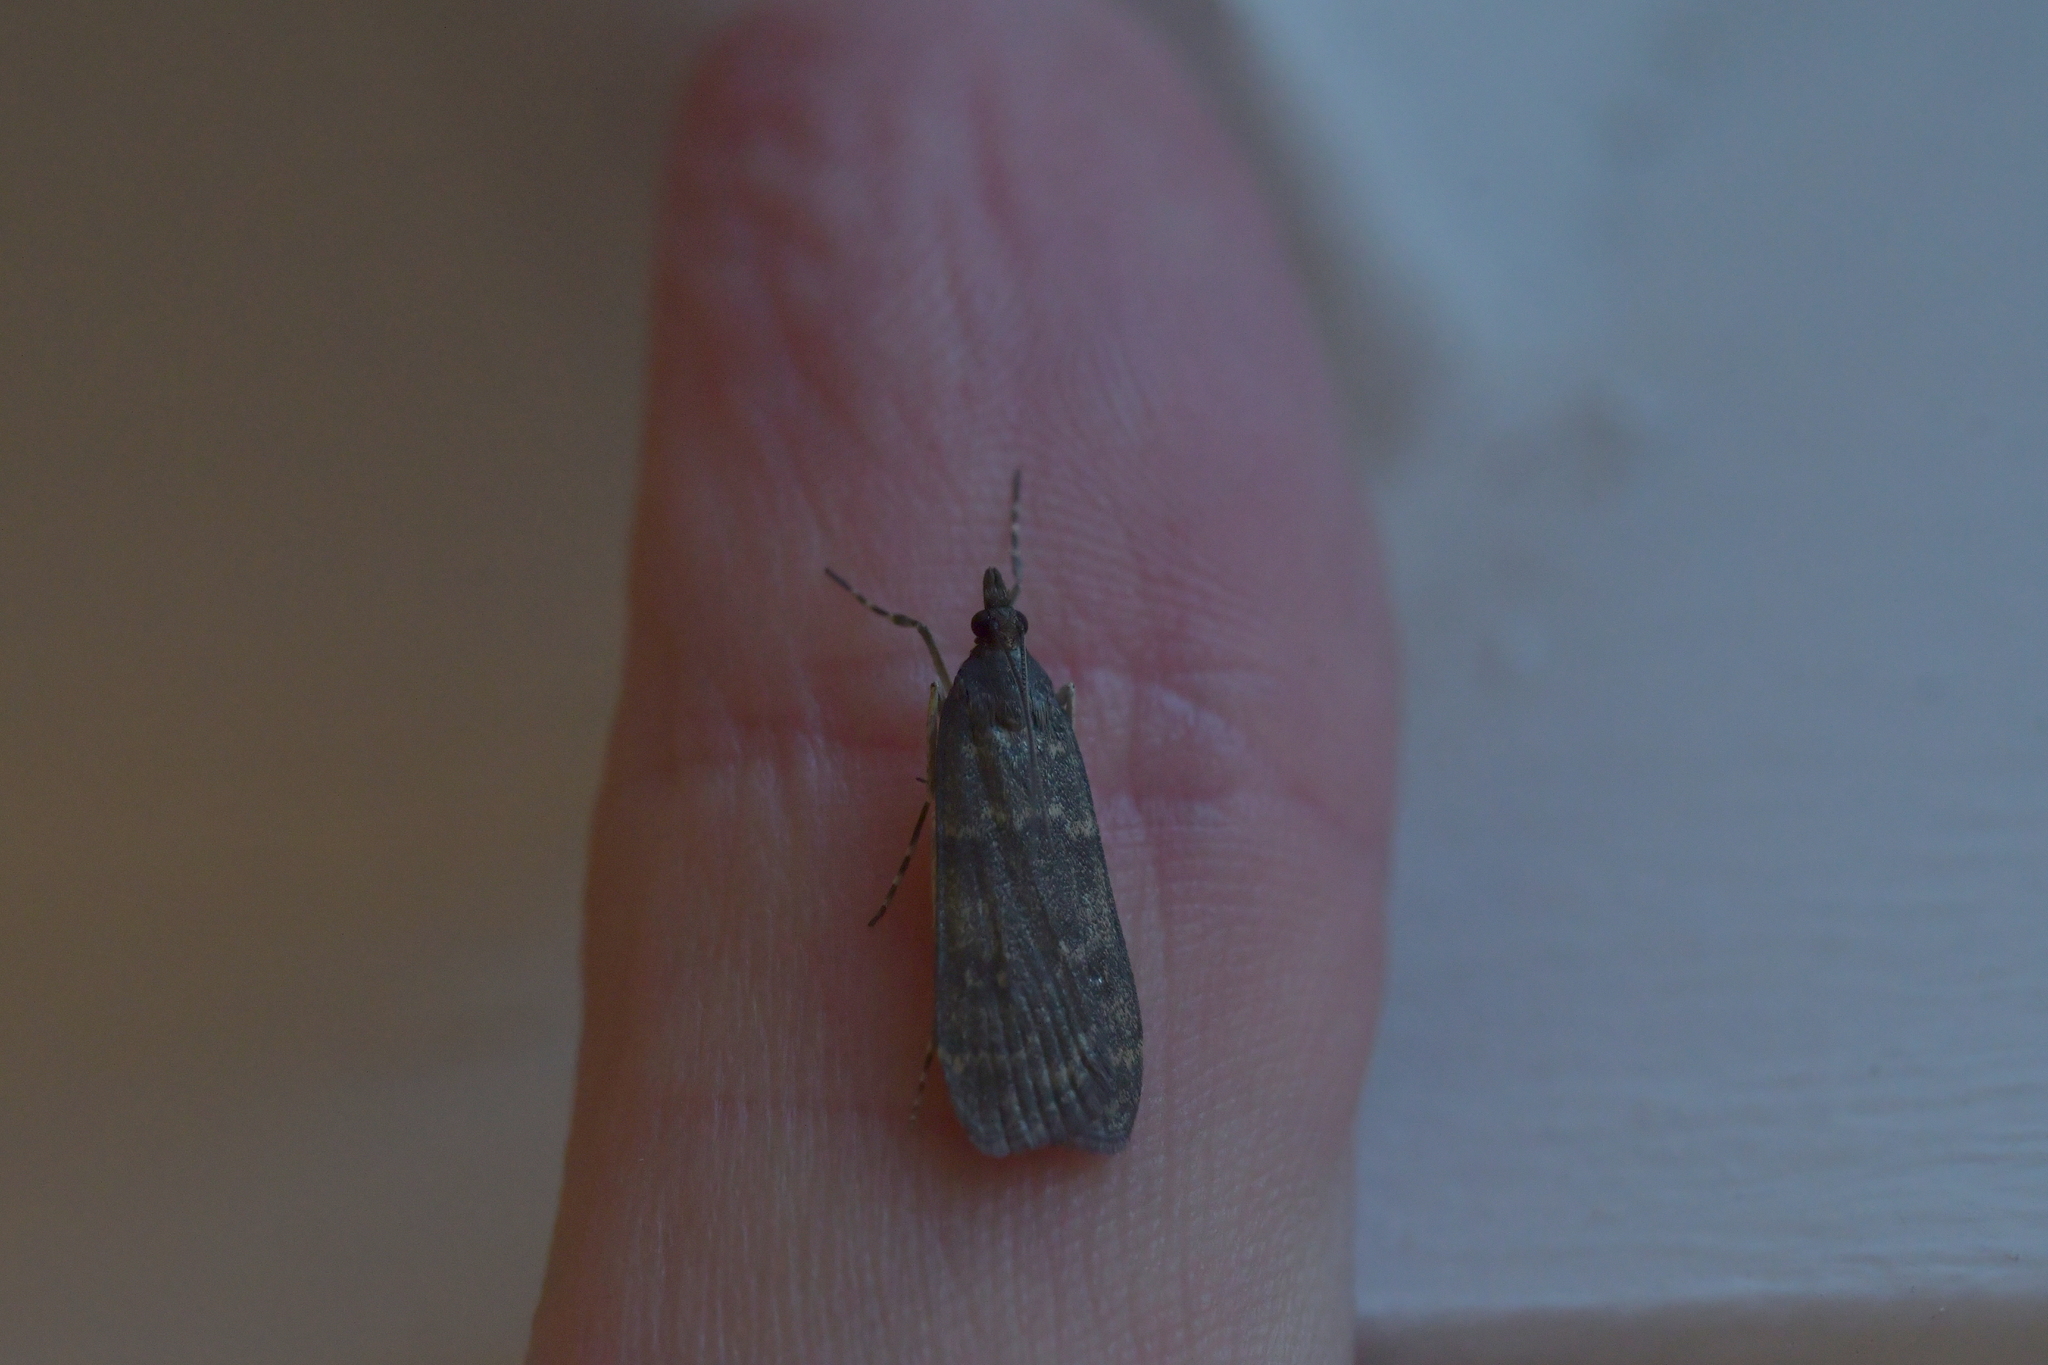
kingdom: Animalia
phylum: Arthropoda
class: Insecta
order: Lepidoptera
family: Crambidae
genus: Eudonia
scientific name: Eudonia cataxesta
